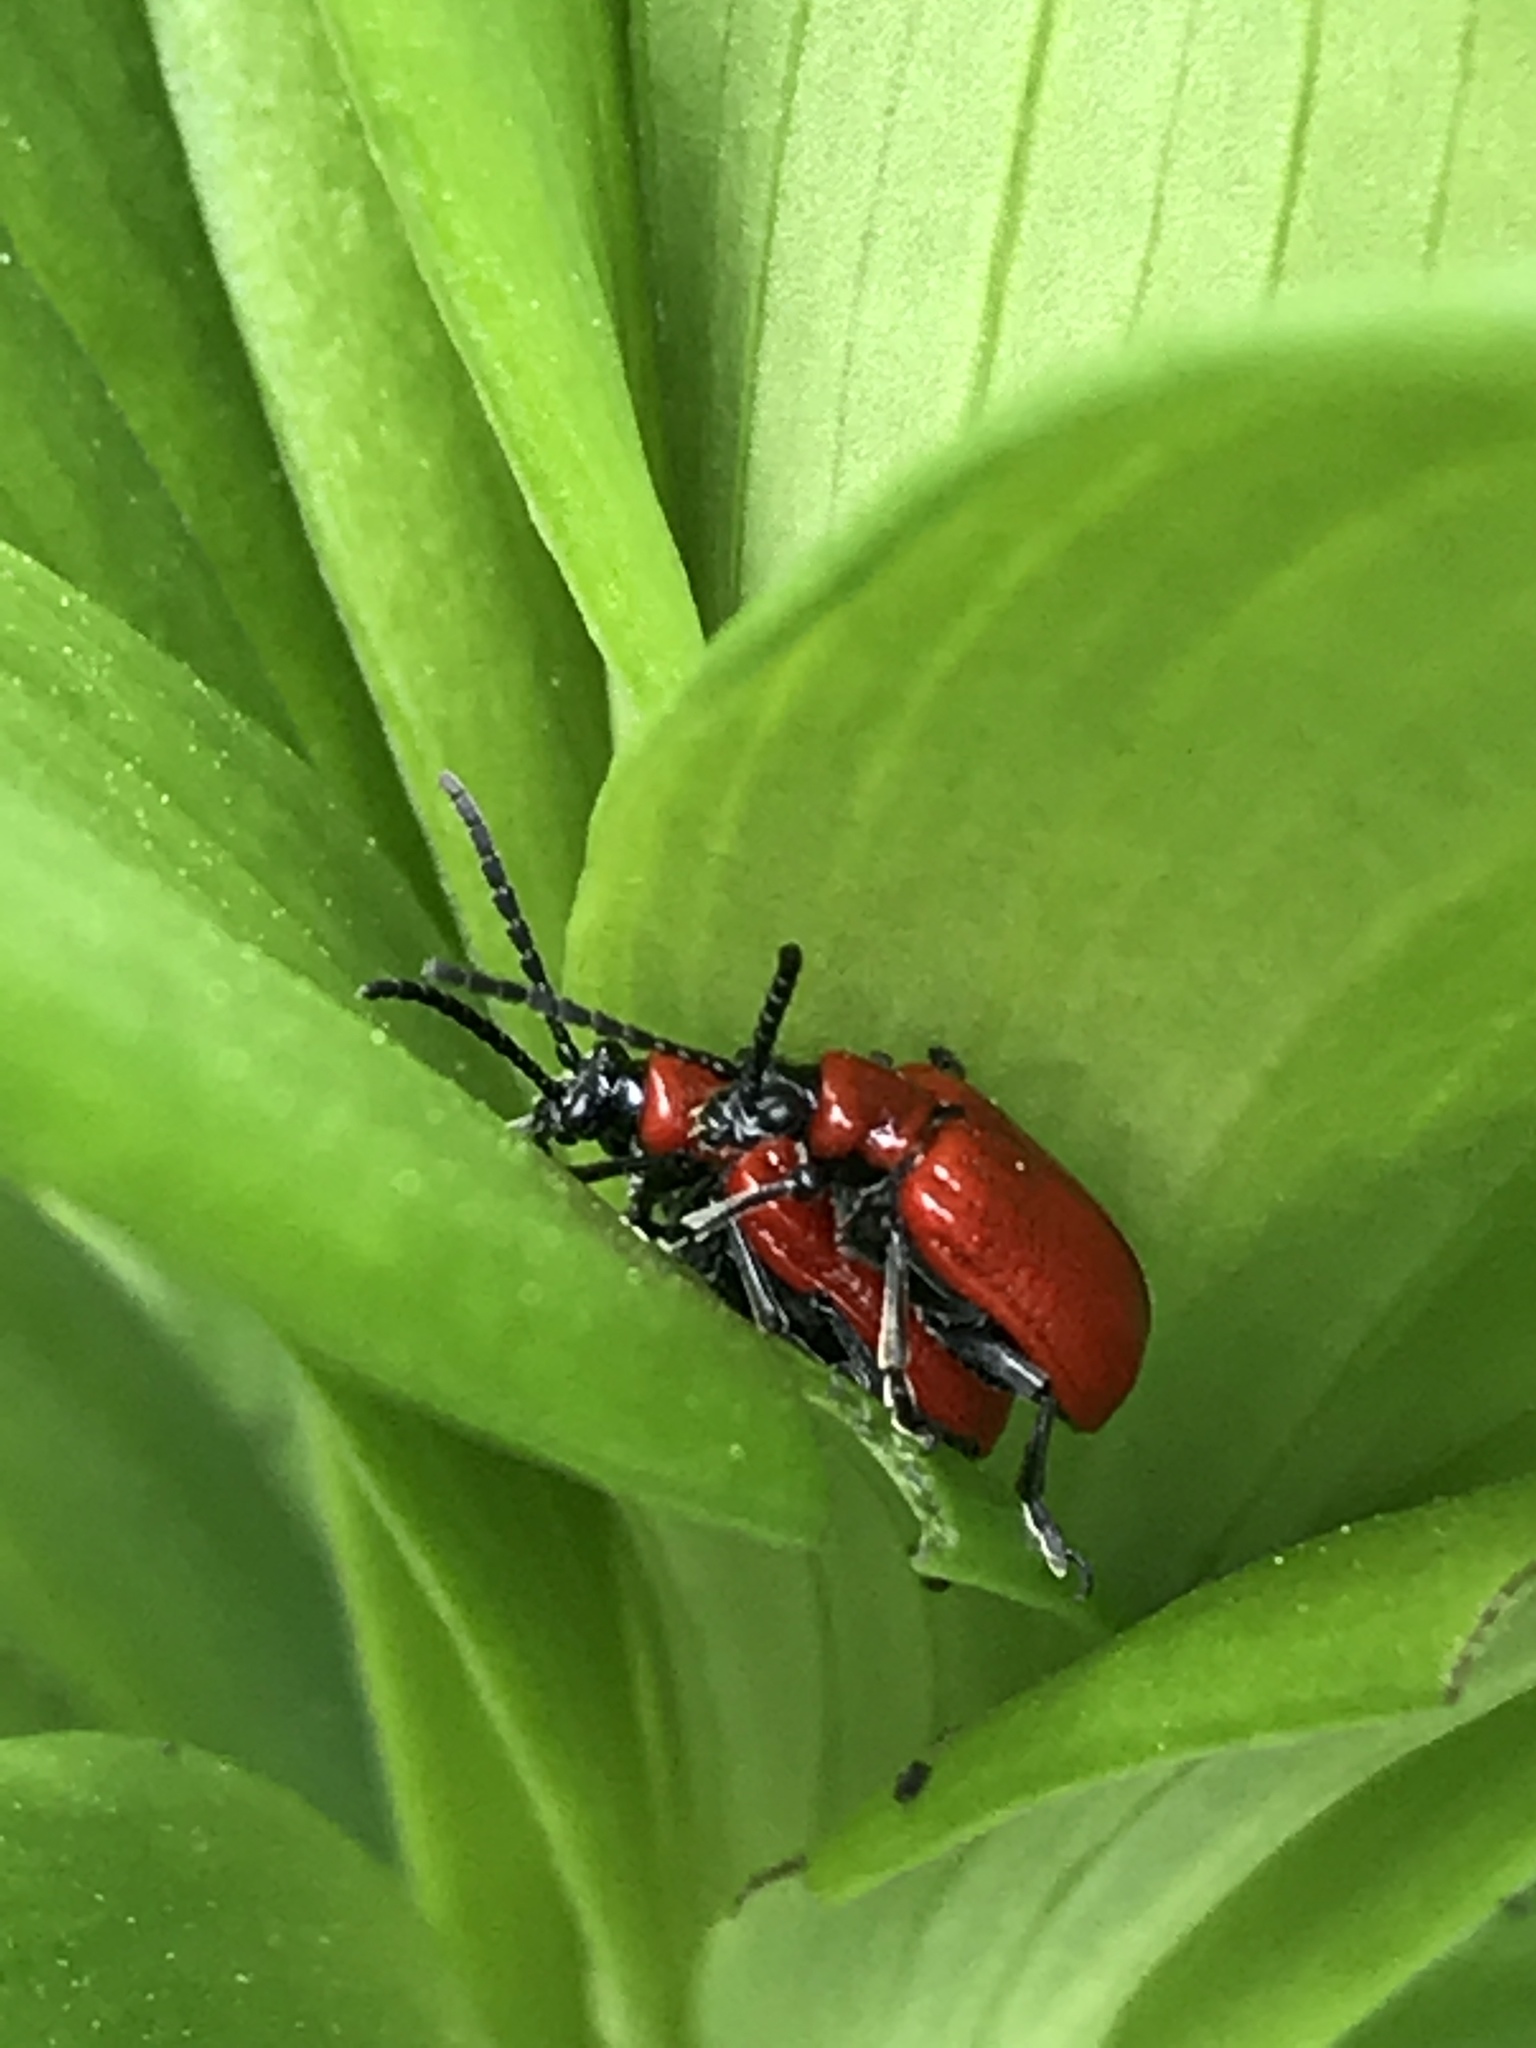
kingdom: Animalia
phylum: Arthropoda
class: Insecta
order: Coleoptera
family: Chrysomelidae
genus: Lilioceris
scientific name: Lilioceris lilii
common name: Lily beetle
